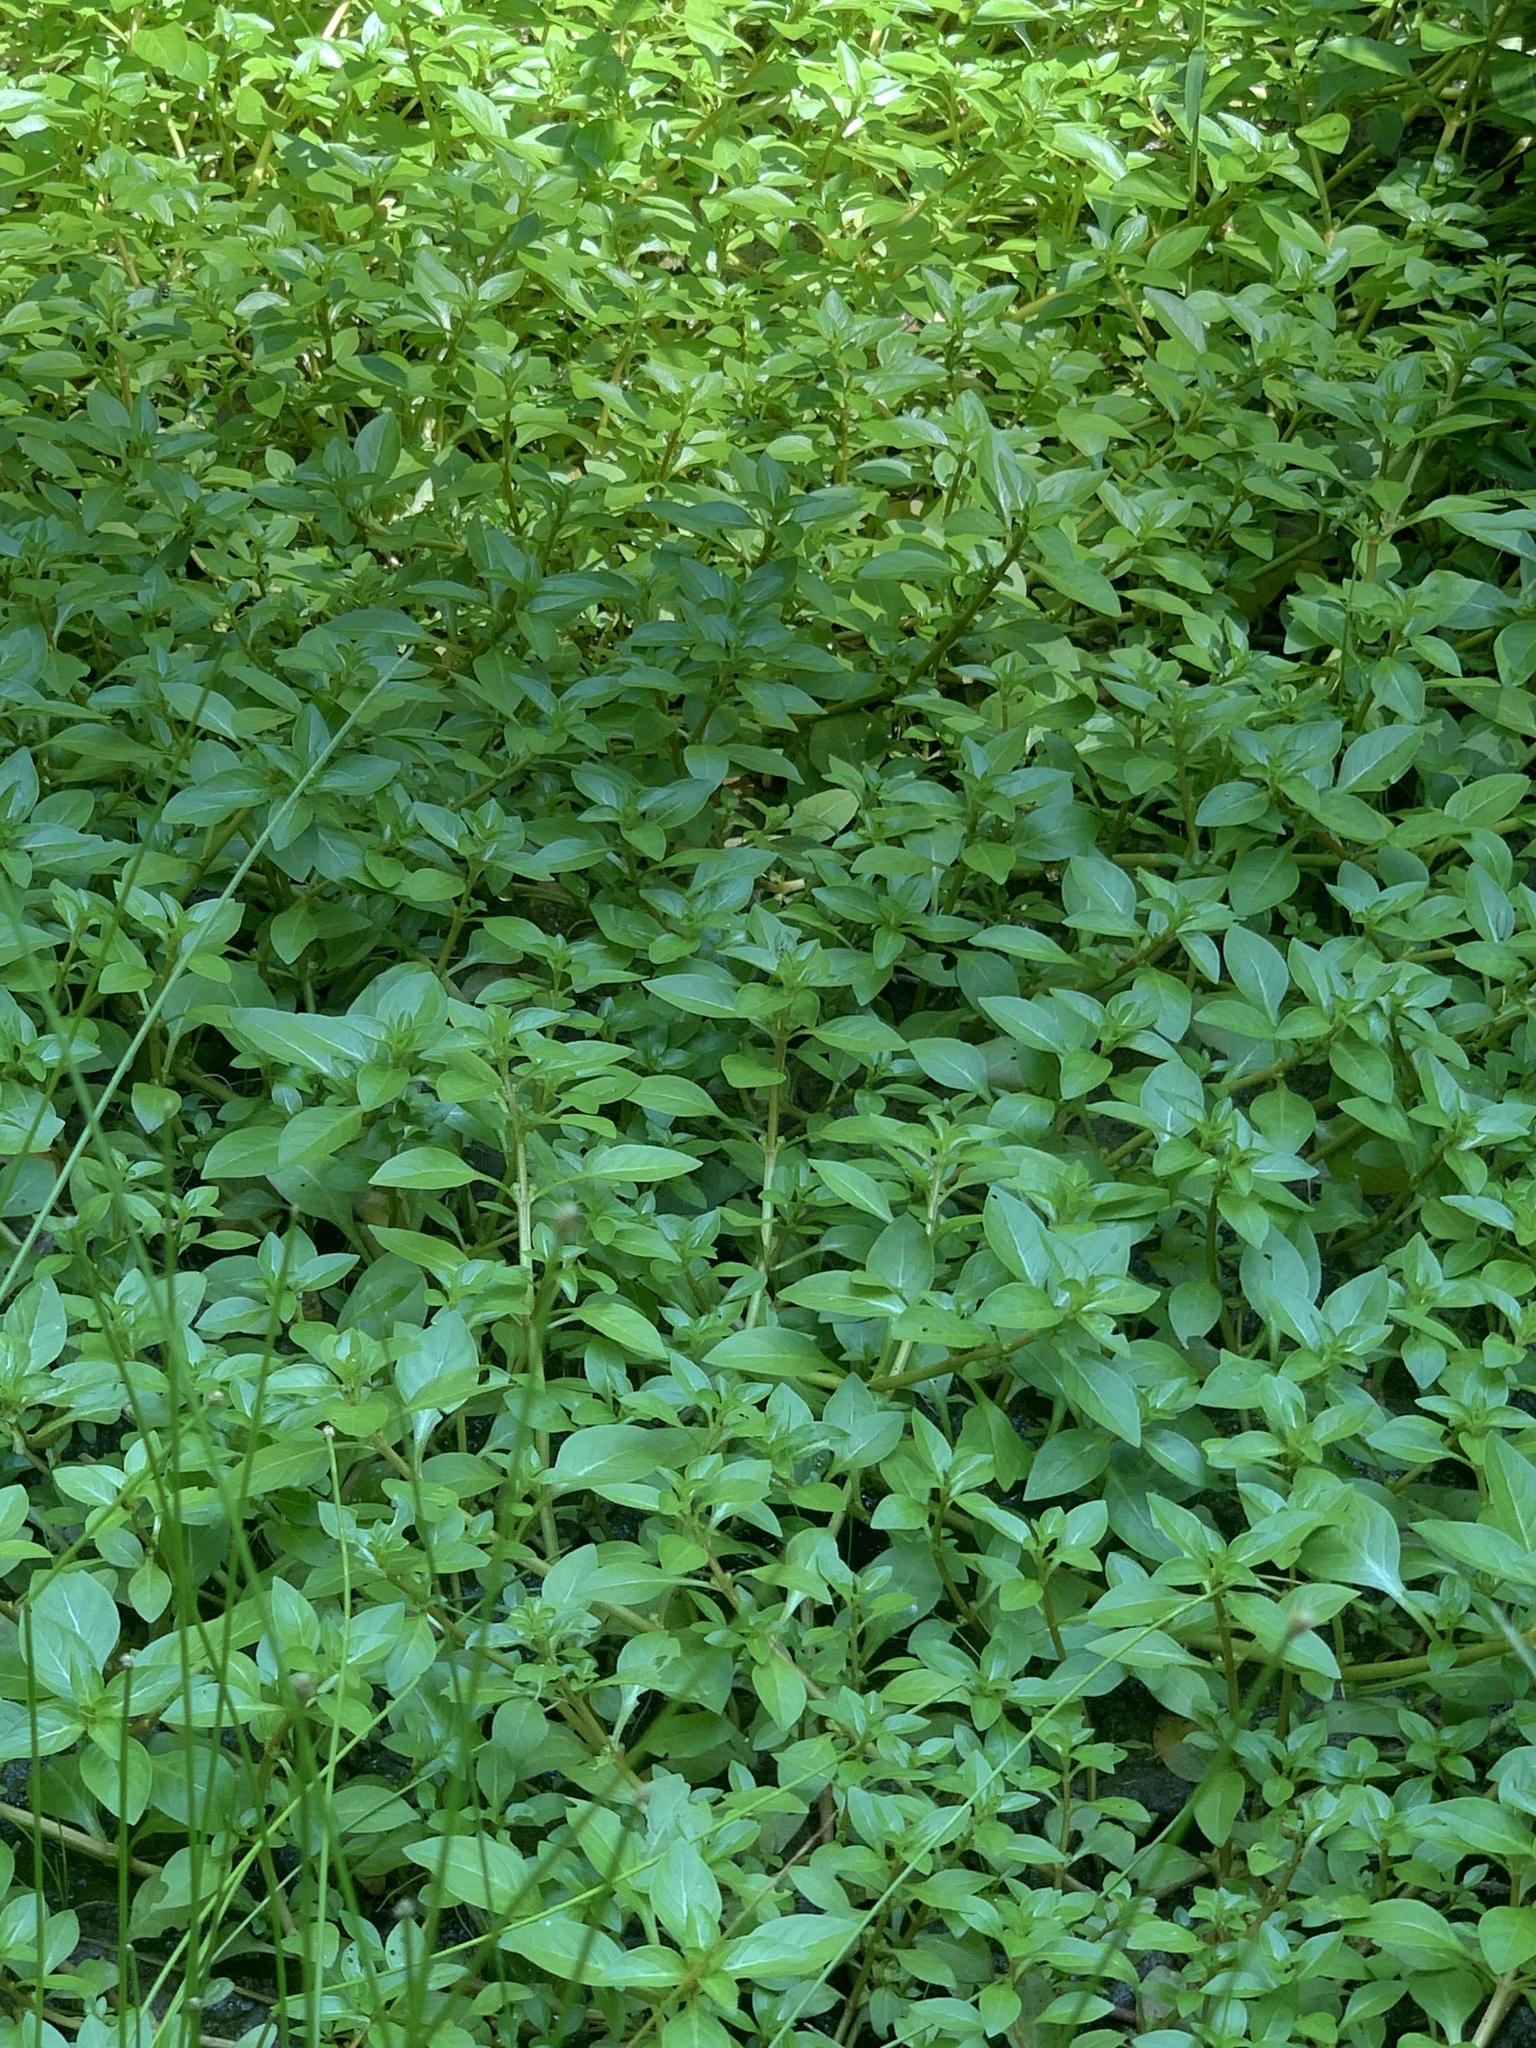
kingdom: Plantae
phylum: Tracheophyta
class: Magnoliopsida
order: Myrtales
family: Onagraceae
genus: Ludwigia
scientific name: Ludwigia palustris
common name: Hampshire-purslane
